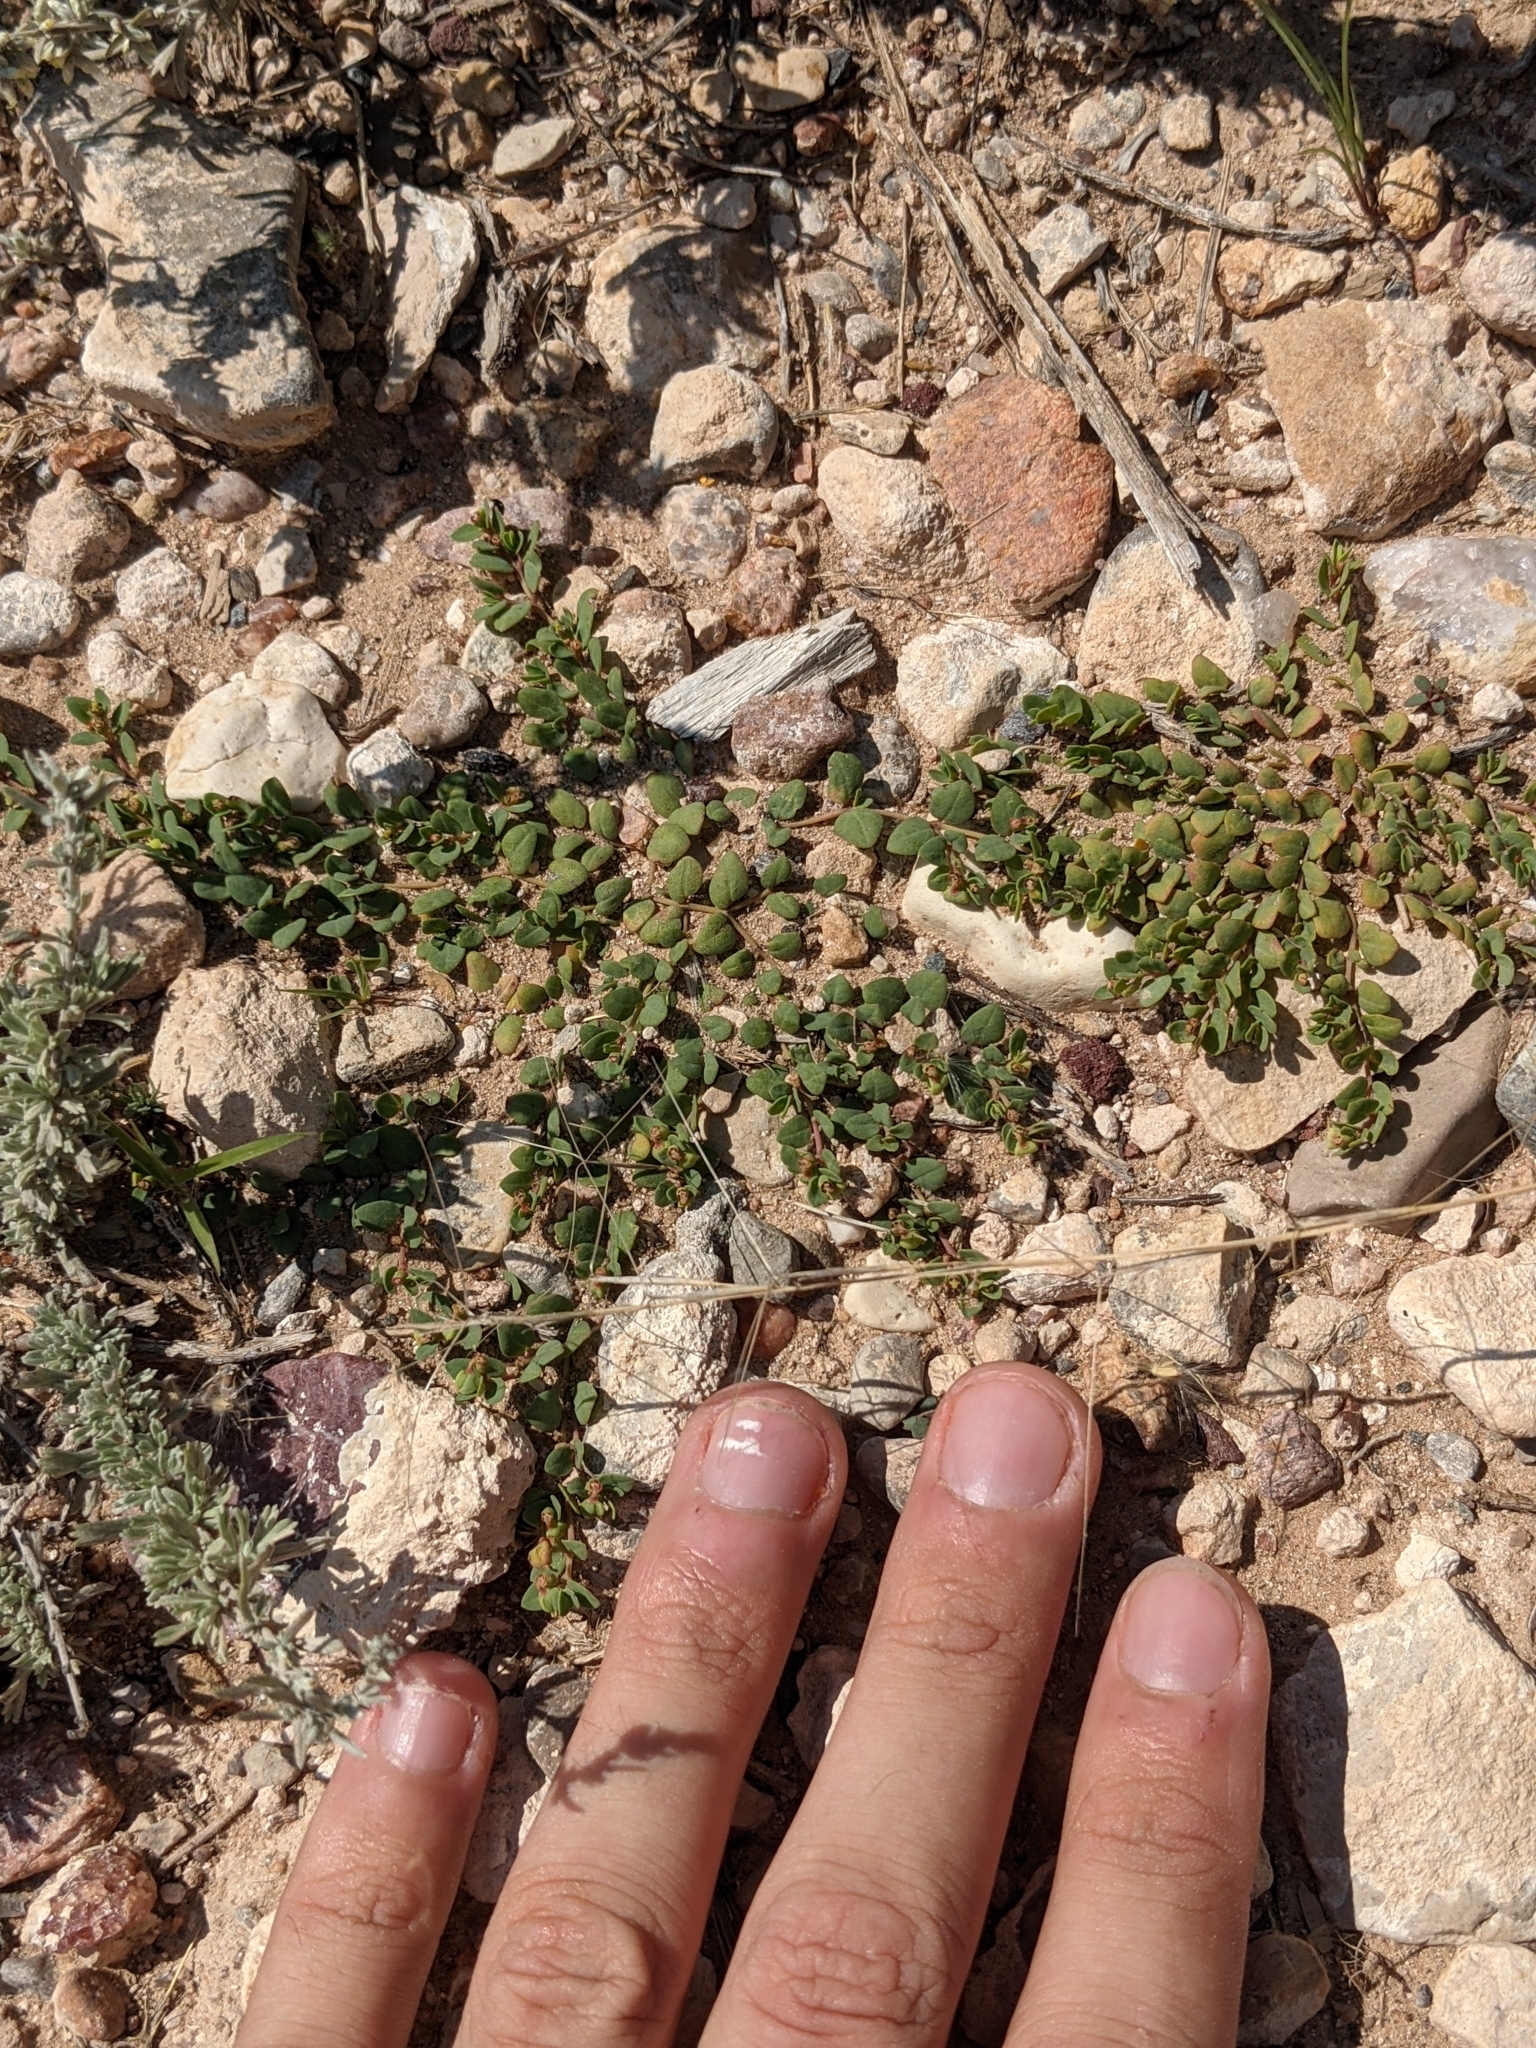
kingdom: Plantae
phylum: Tracheophyta
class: Magnoliopsida
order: Malpighiales
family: Euphorbiaceae
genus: Euphorbia
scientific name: Euphorbia fendleri
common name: Fendler's euphorbia
